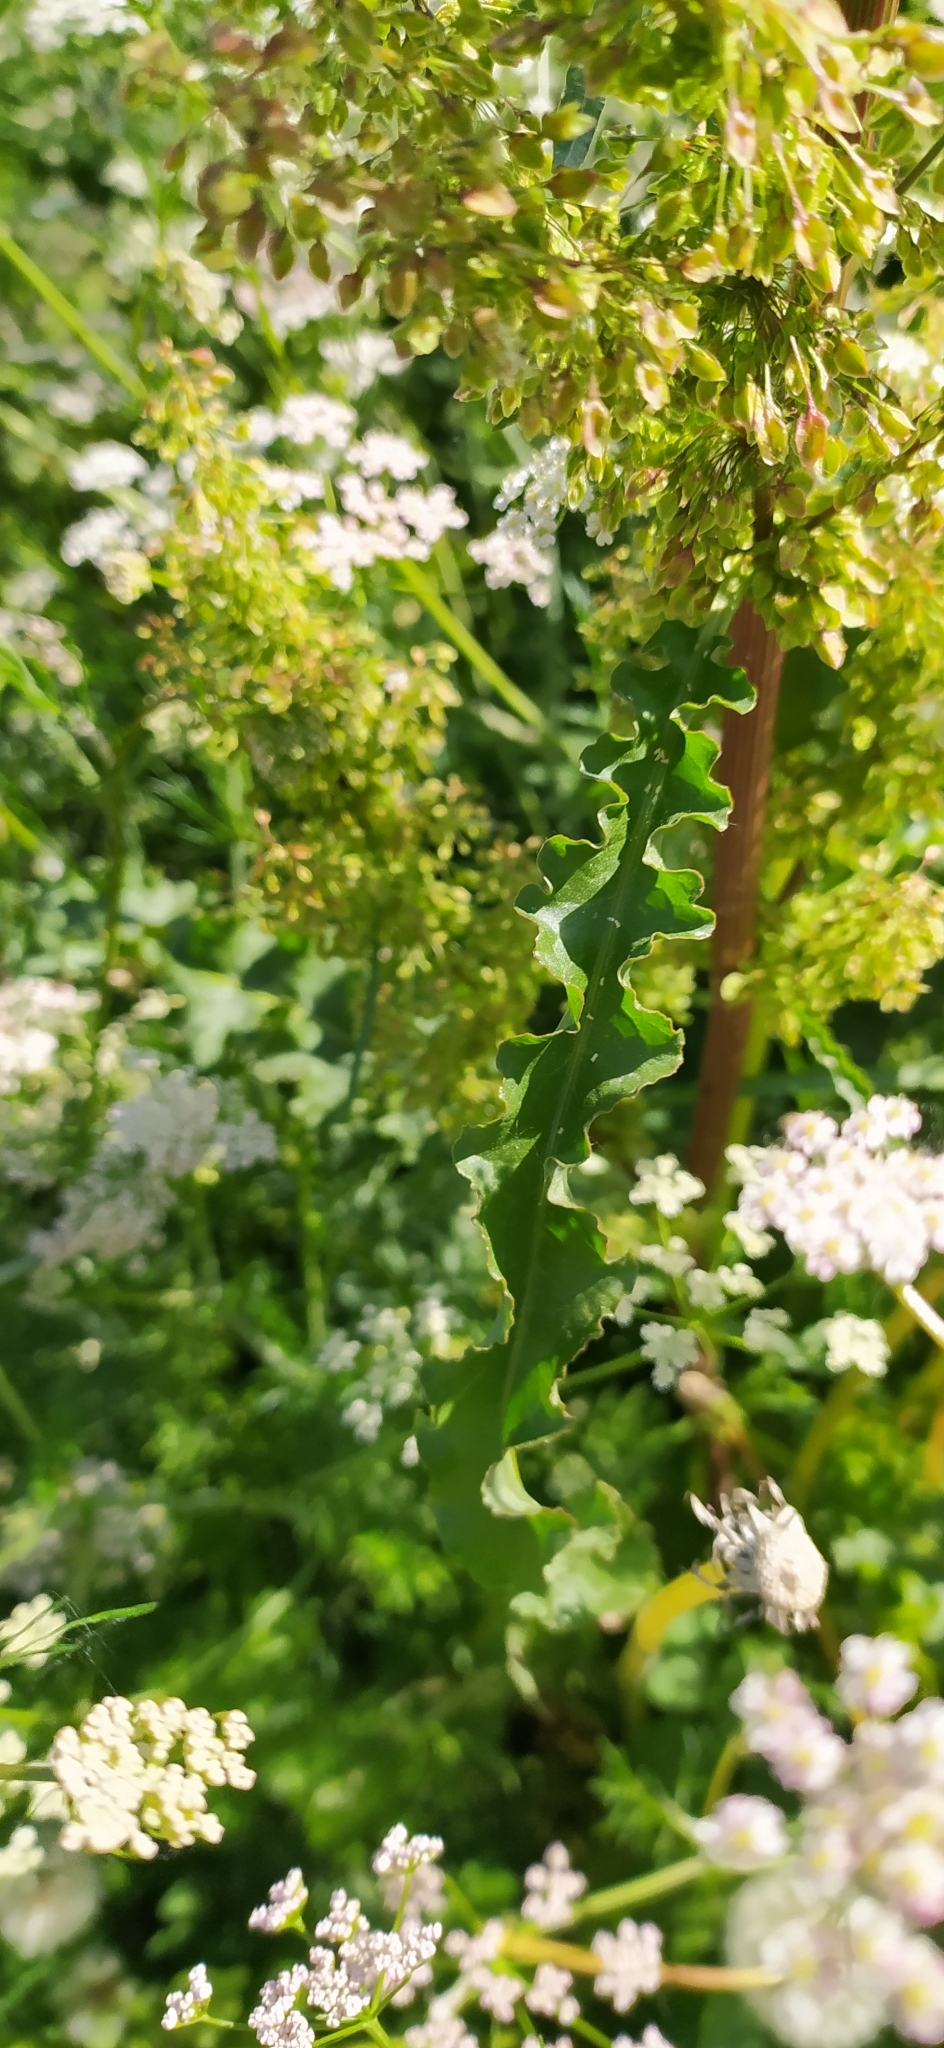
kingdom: Plantae
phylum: Tracheophyta
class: Magnoliopsida
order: Caryophyllales
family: Polygonaceae
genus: Rumex
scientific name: Rumex pseudonatronatus
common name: Field dock
